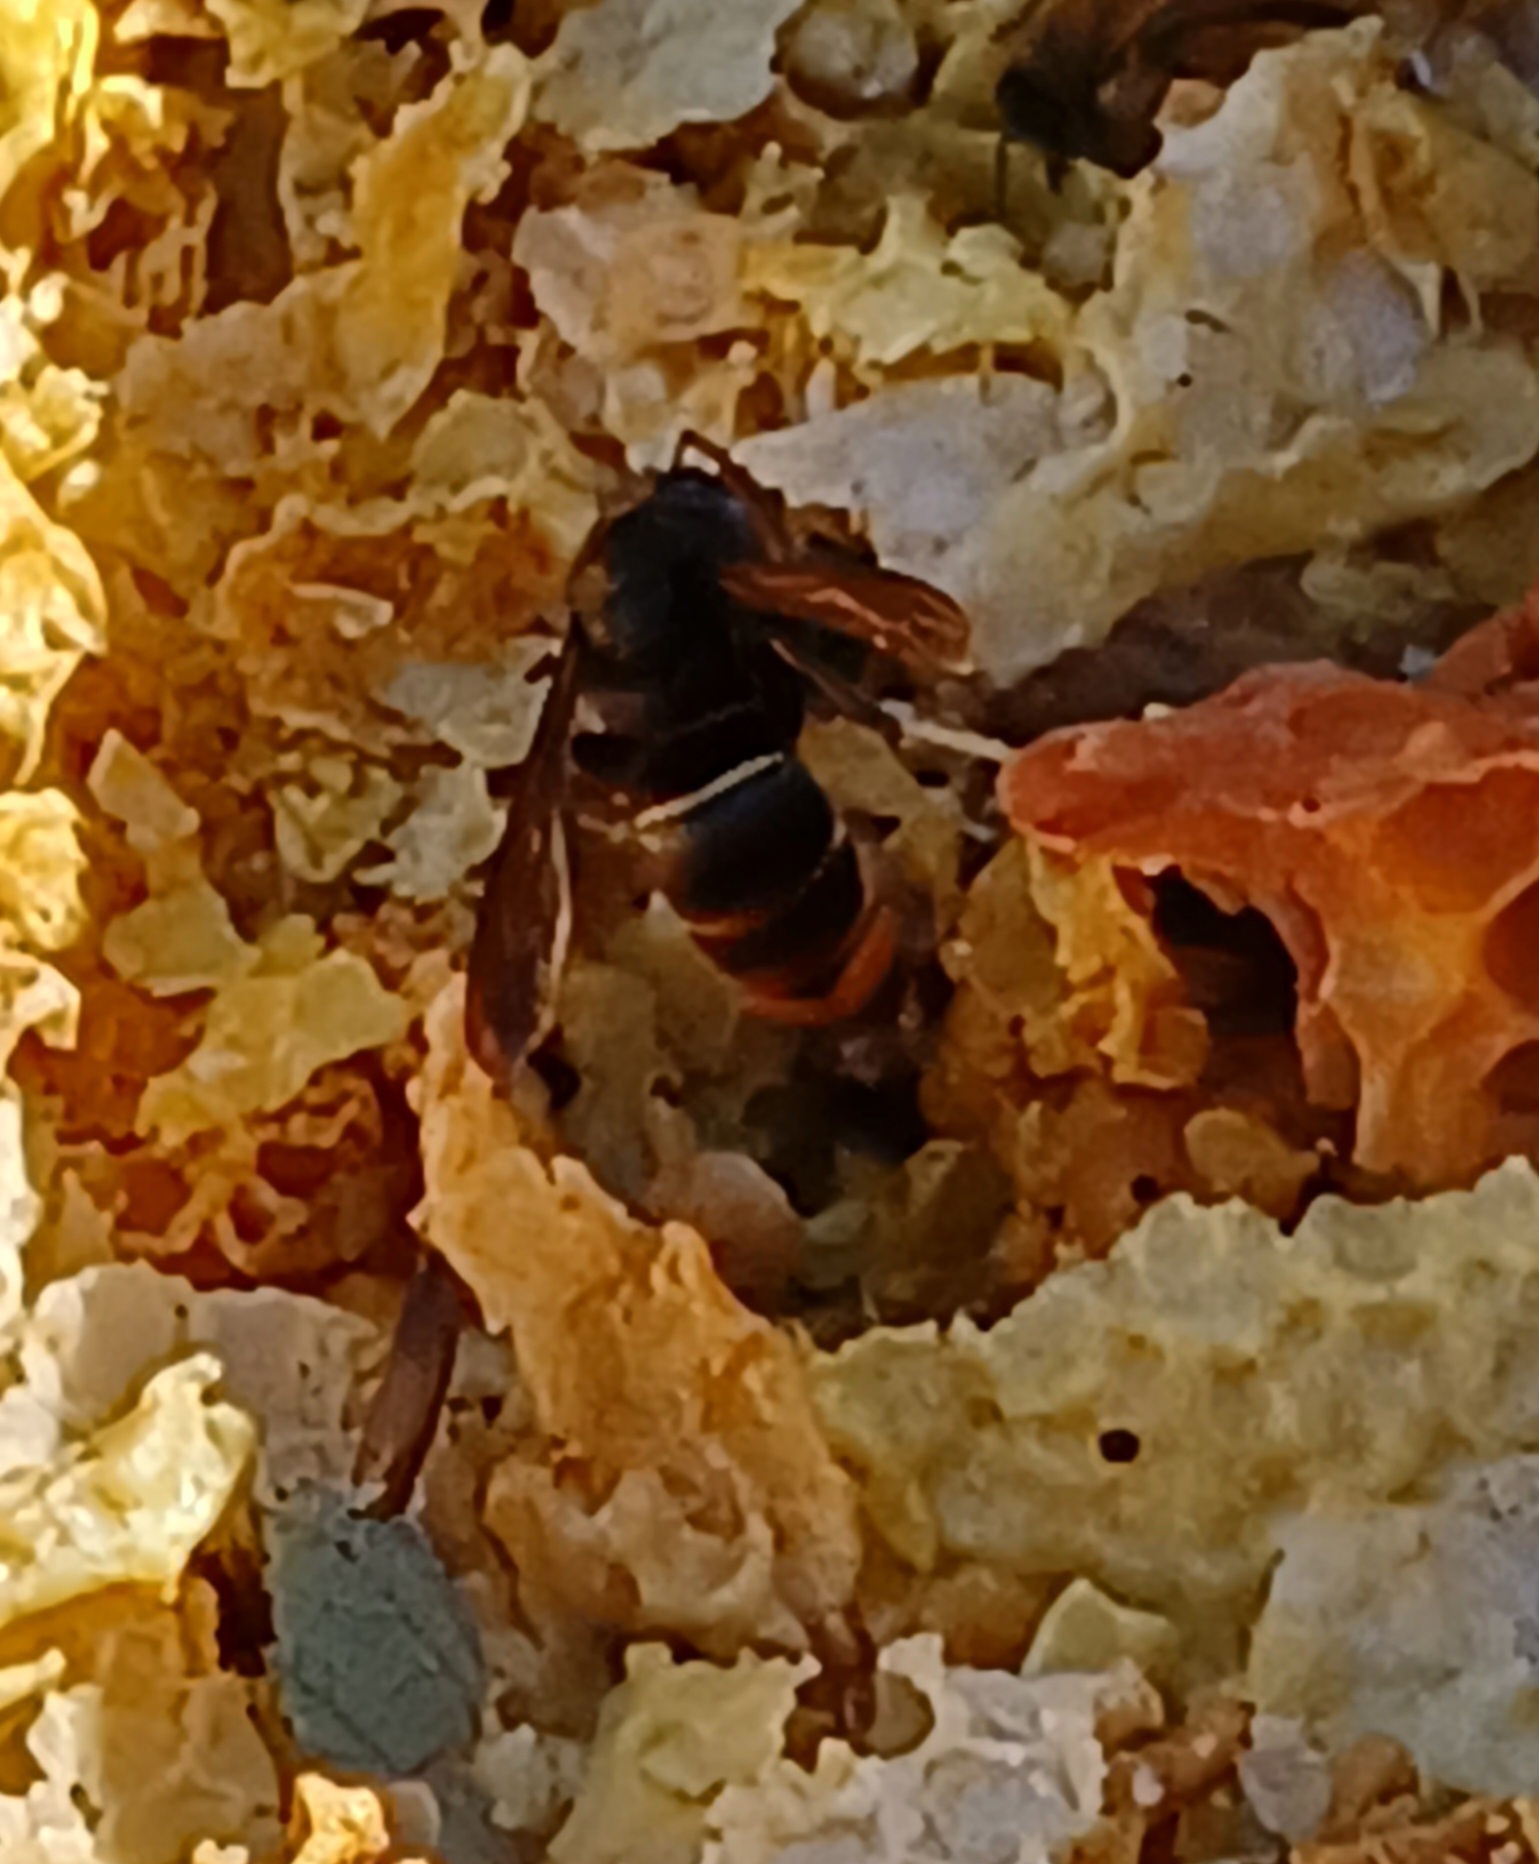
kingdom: Animalia
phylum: Arthropoda
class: Insecta
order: Hymenoptera
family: Vespidae
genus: Vespa
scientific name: Vespa velutina
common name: Asian hornet
